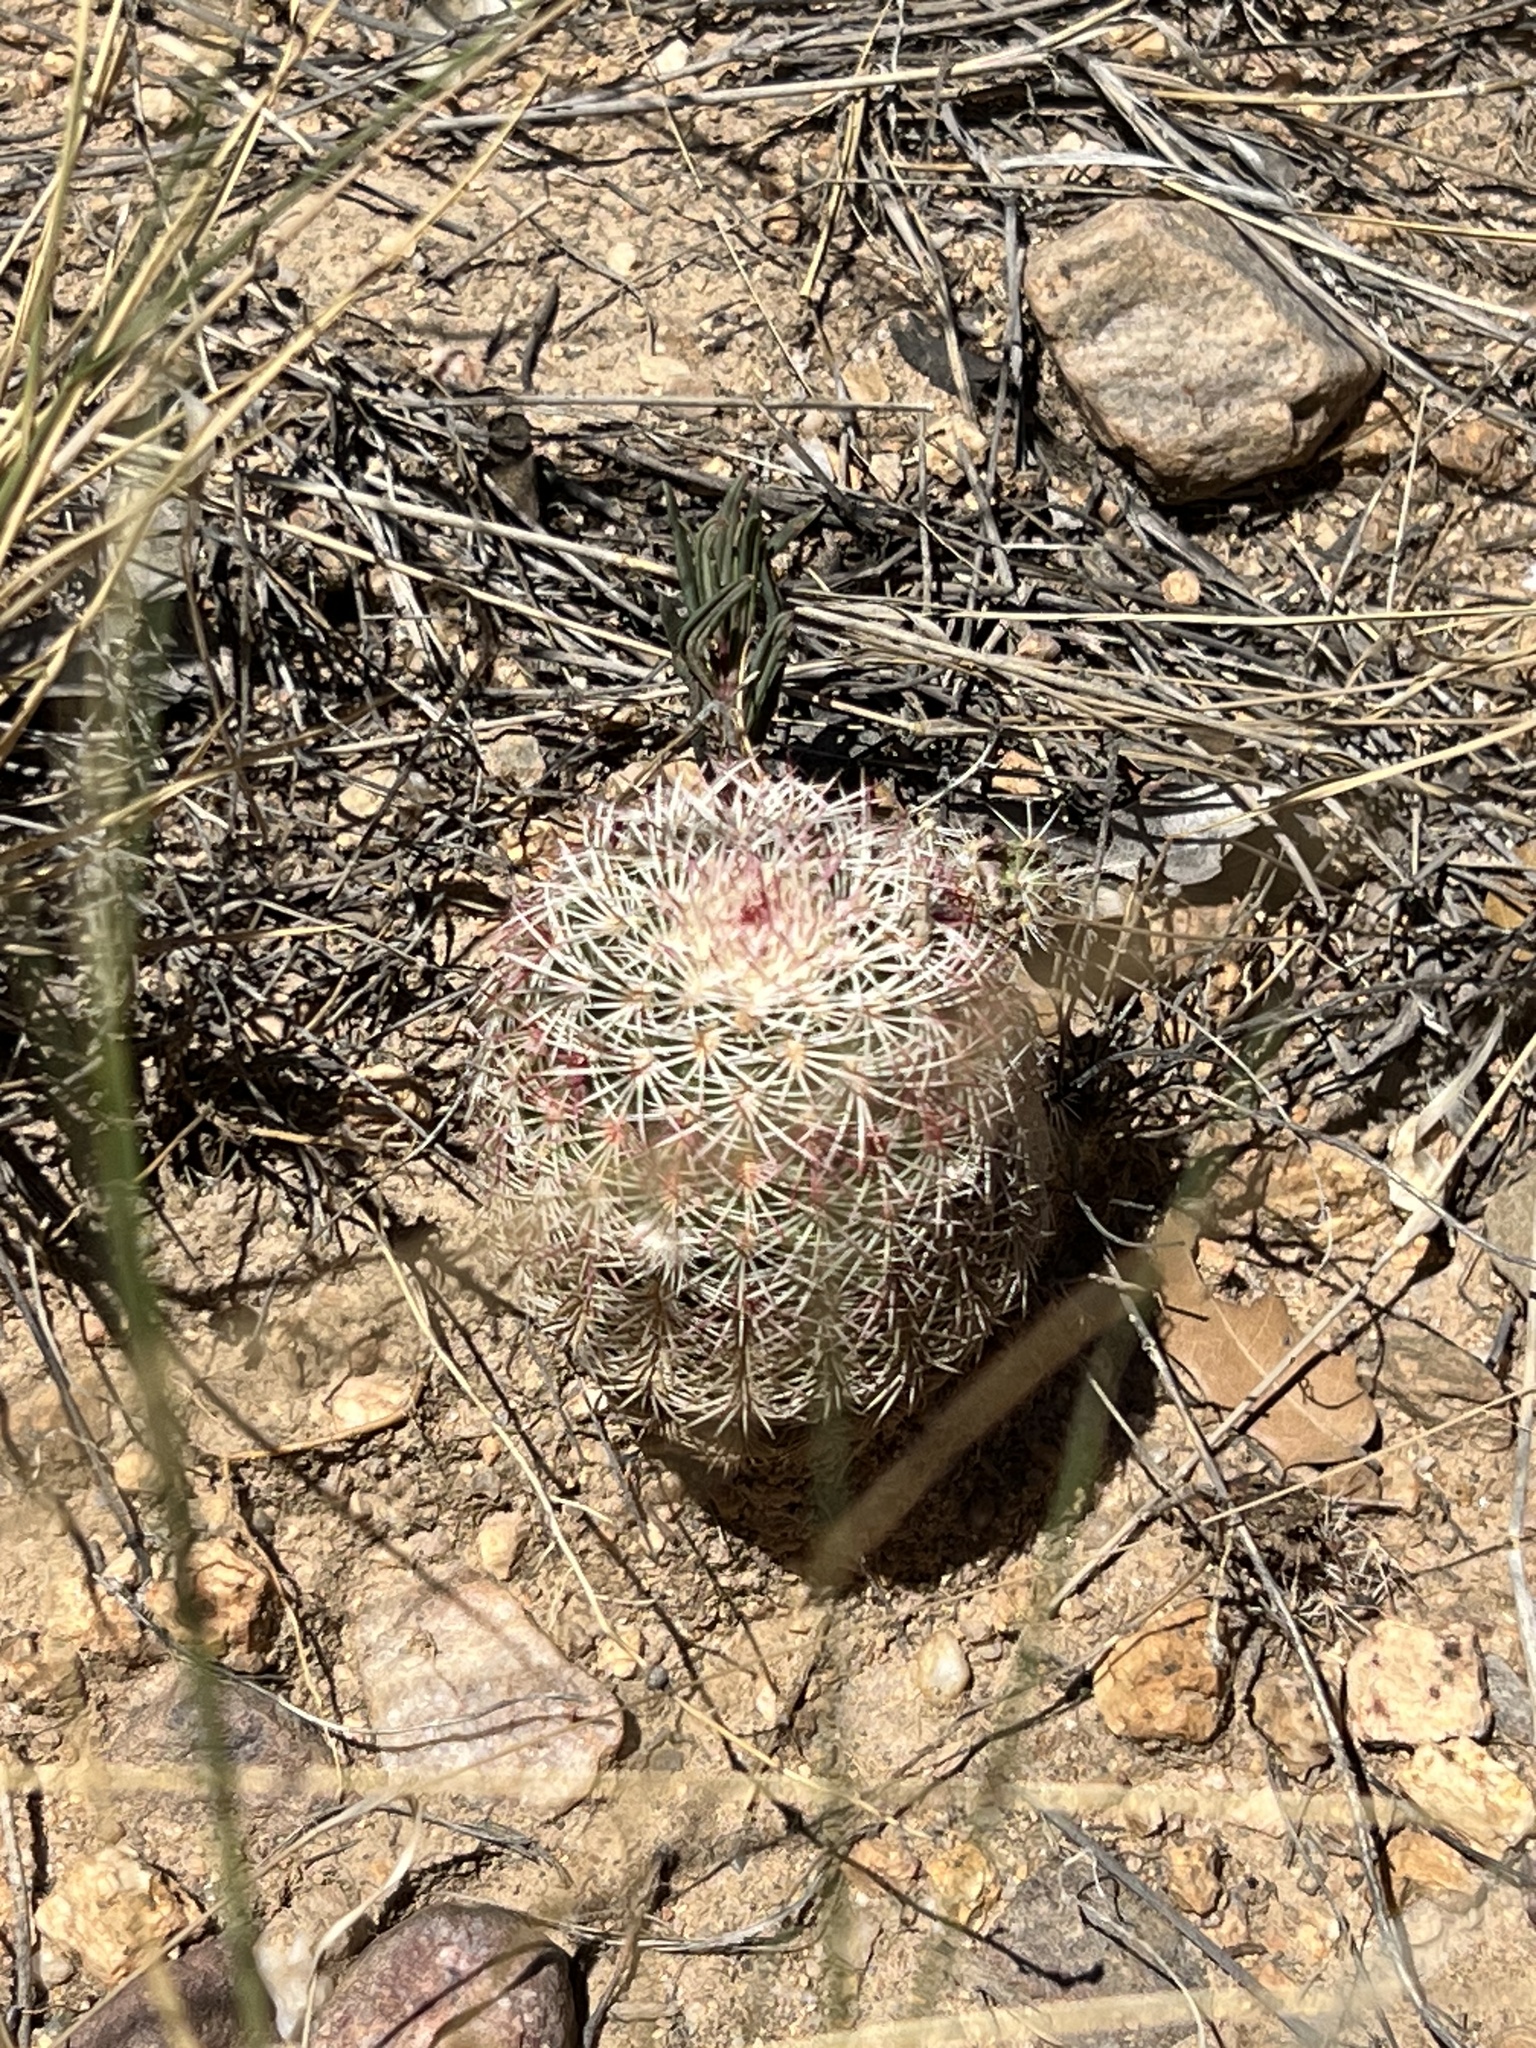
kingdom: Plantae
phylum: Tracheophyta
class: Magnoliopsida
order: Caryophyllales
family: Cactaceae
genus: Echinocereus
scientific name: Echinocereus rigidissimus
